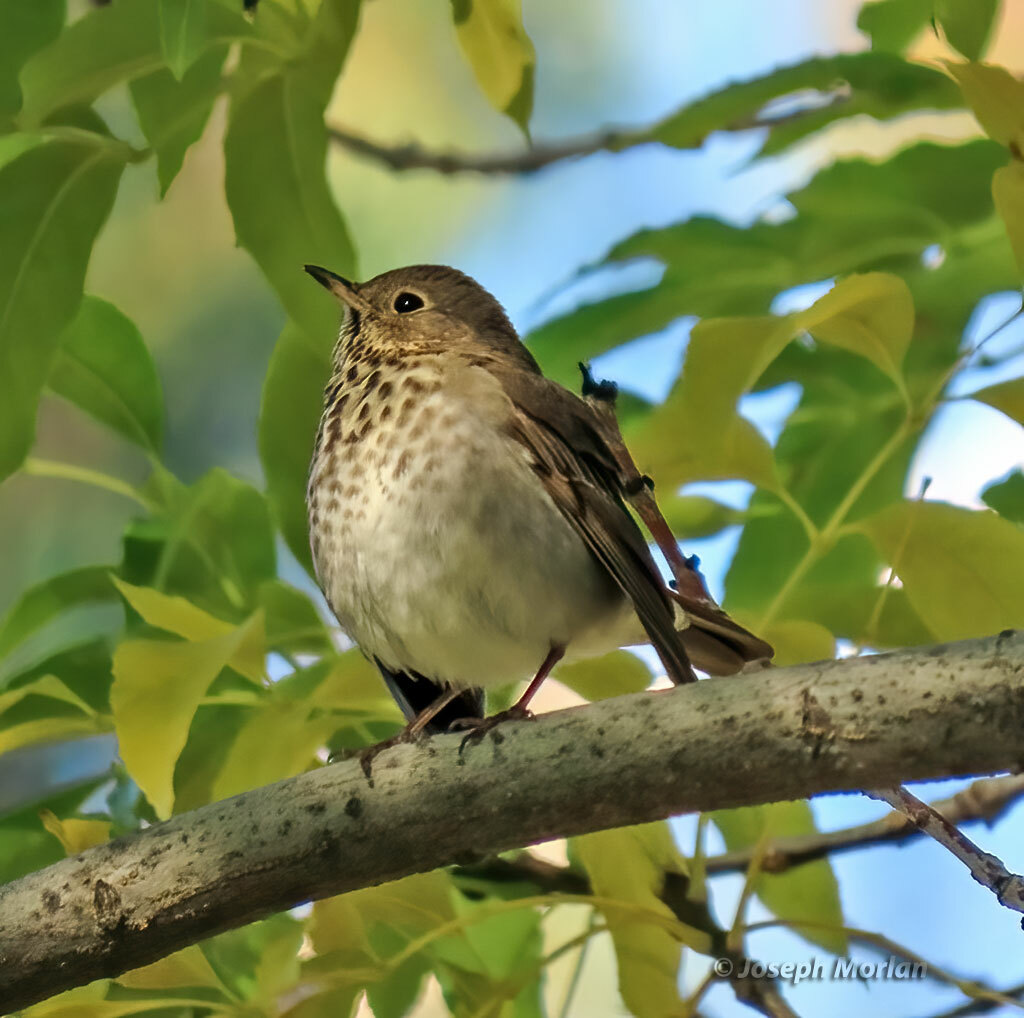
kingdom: Animalia
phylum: Chordata
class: Aves
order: Passeriformes
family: Turdidae
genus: Catharus
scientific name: Catharus guttatus
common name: Hermit thrush
